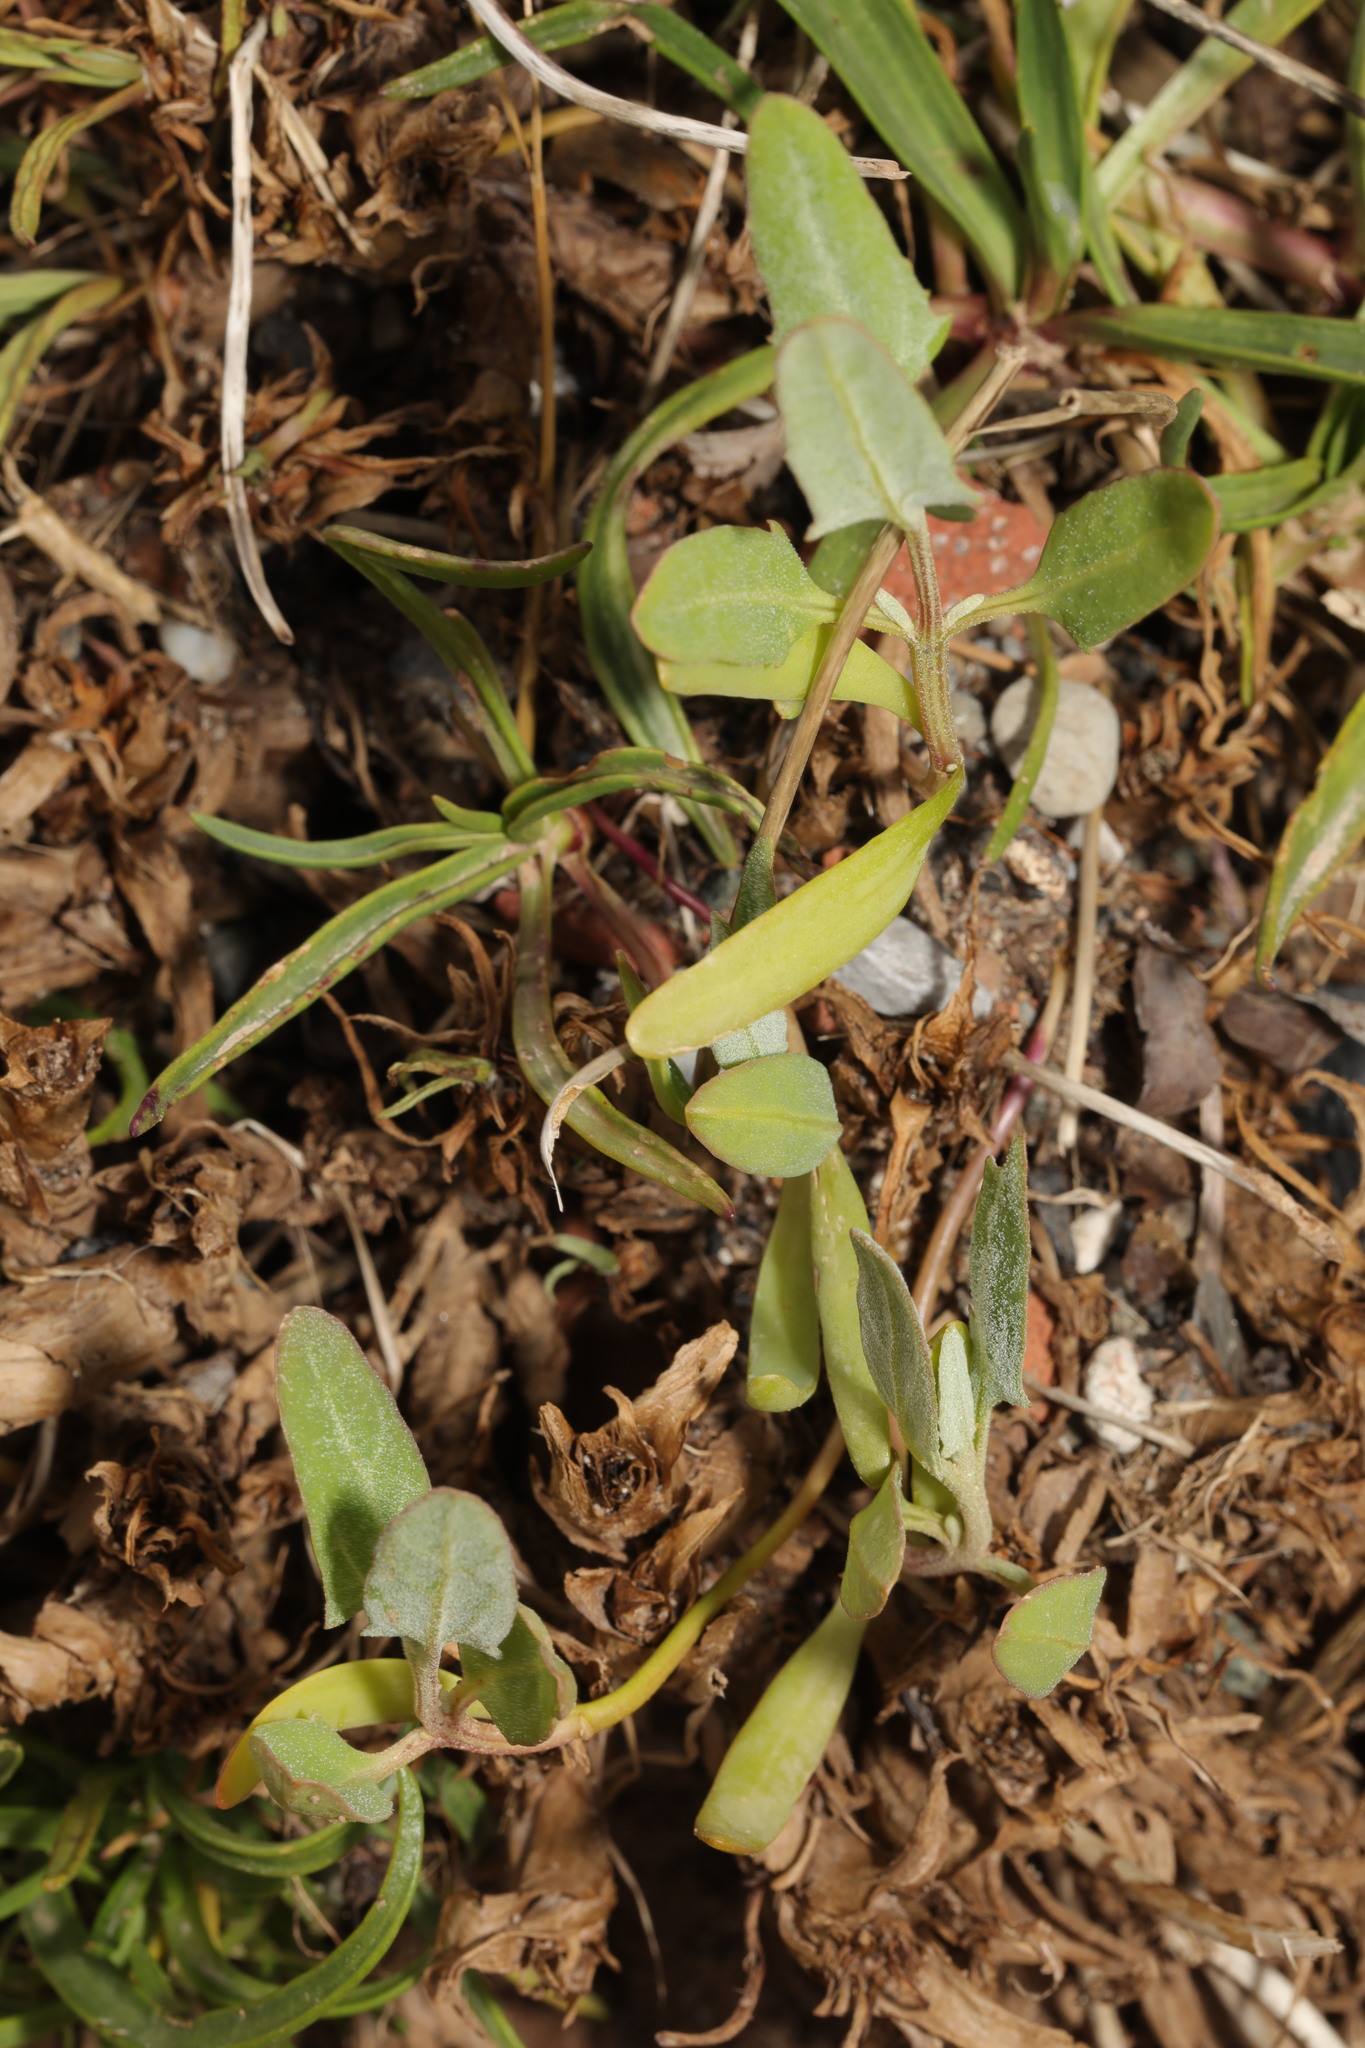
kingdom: Plantae
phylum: Tracheophyta
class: Magnoliopsida
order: Caryophyllales
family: Amaranthaceae
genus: Atriplex
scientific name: Atriplex prostrata
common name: Spear-leaved orache
